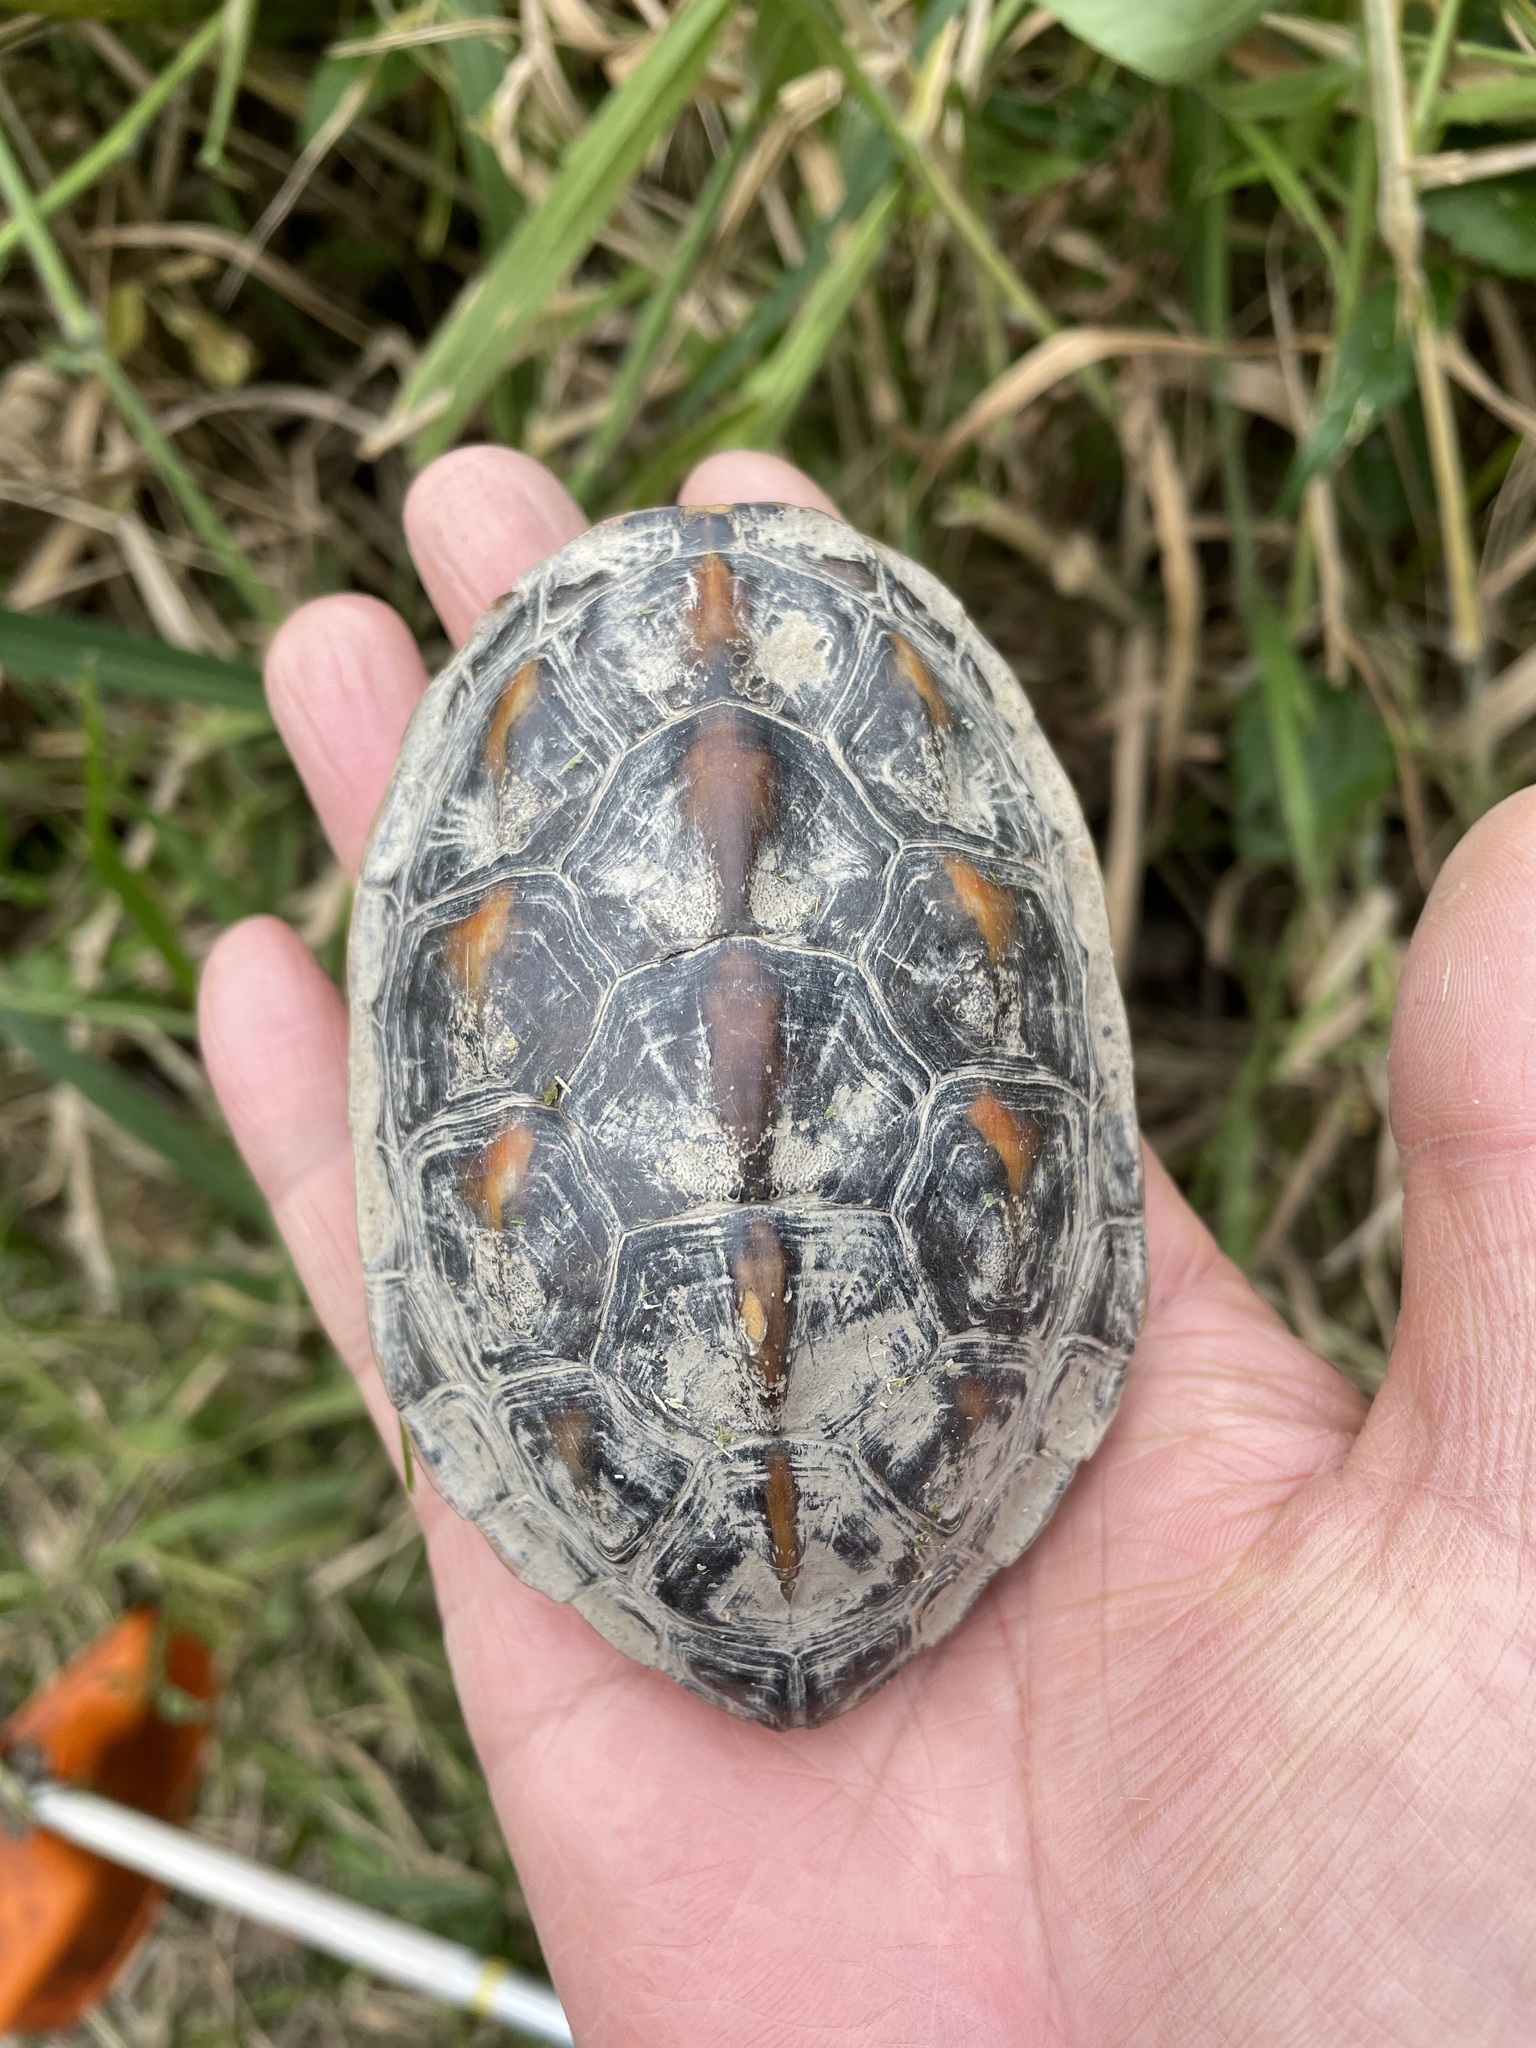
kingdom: Animalia
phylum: Chordata
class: Testudines
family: Geoemydidae
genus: Mauremys
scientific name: Mauremys sinensis
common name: Chinese stripe-necked turtle
